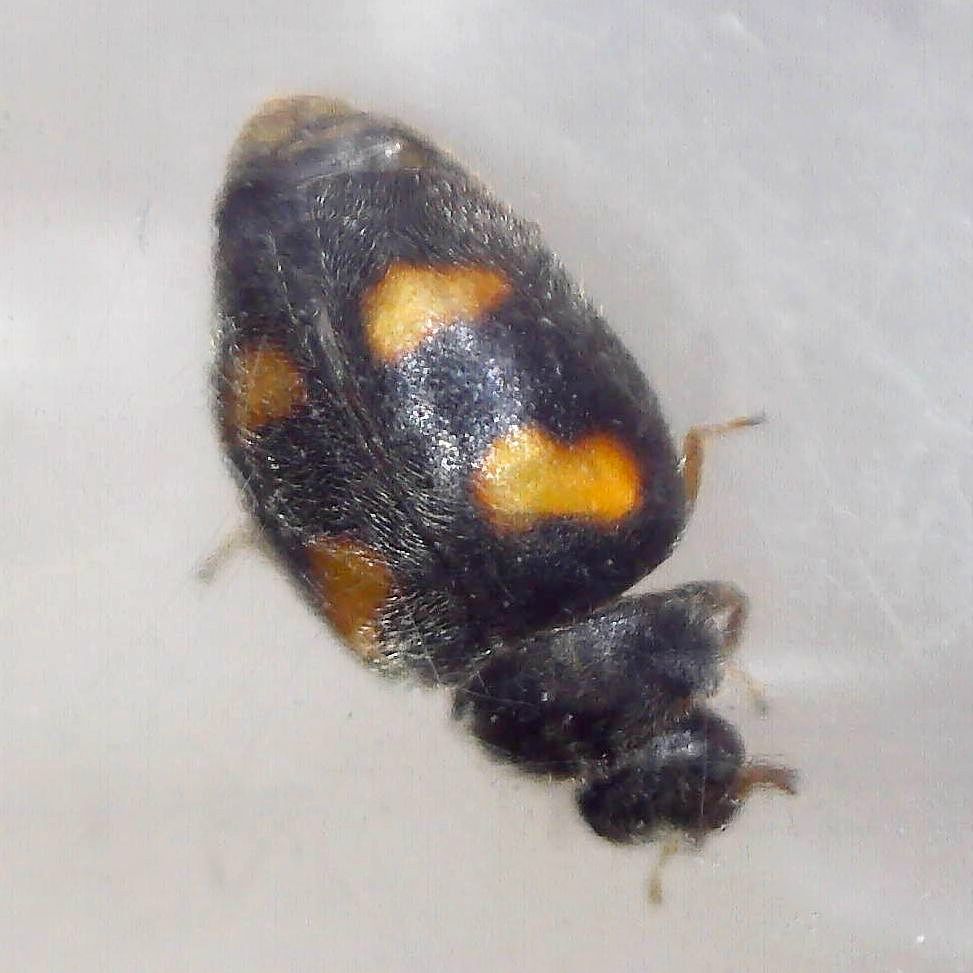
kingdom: Animalia
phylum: Arthropoda
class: Insecta
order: Coleoptera
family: Coccinellidae
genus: Nephus
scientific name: Nephus quadrimaculatus
